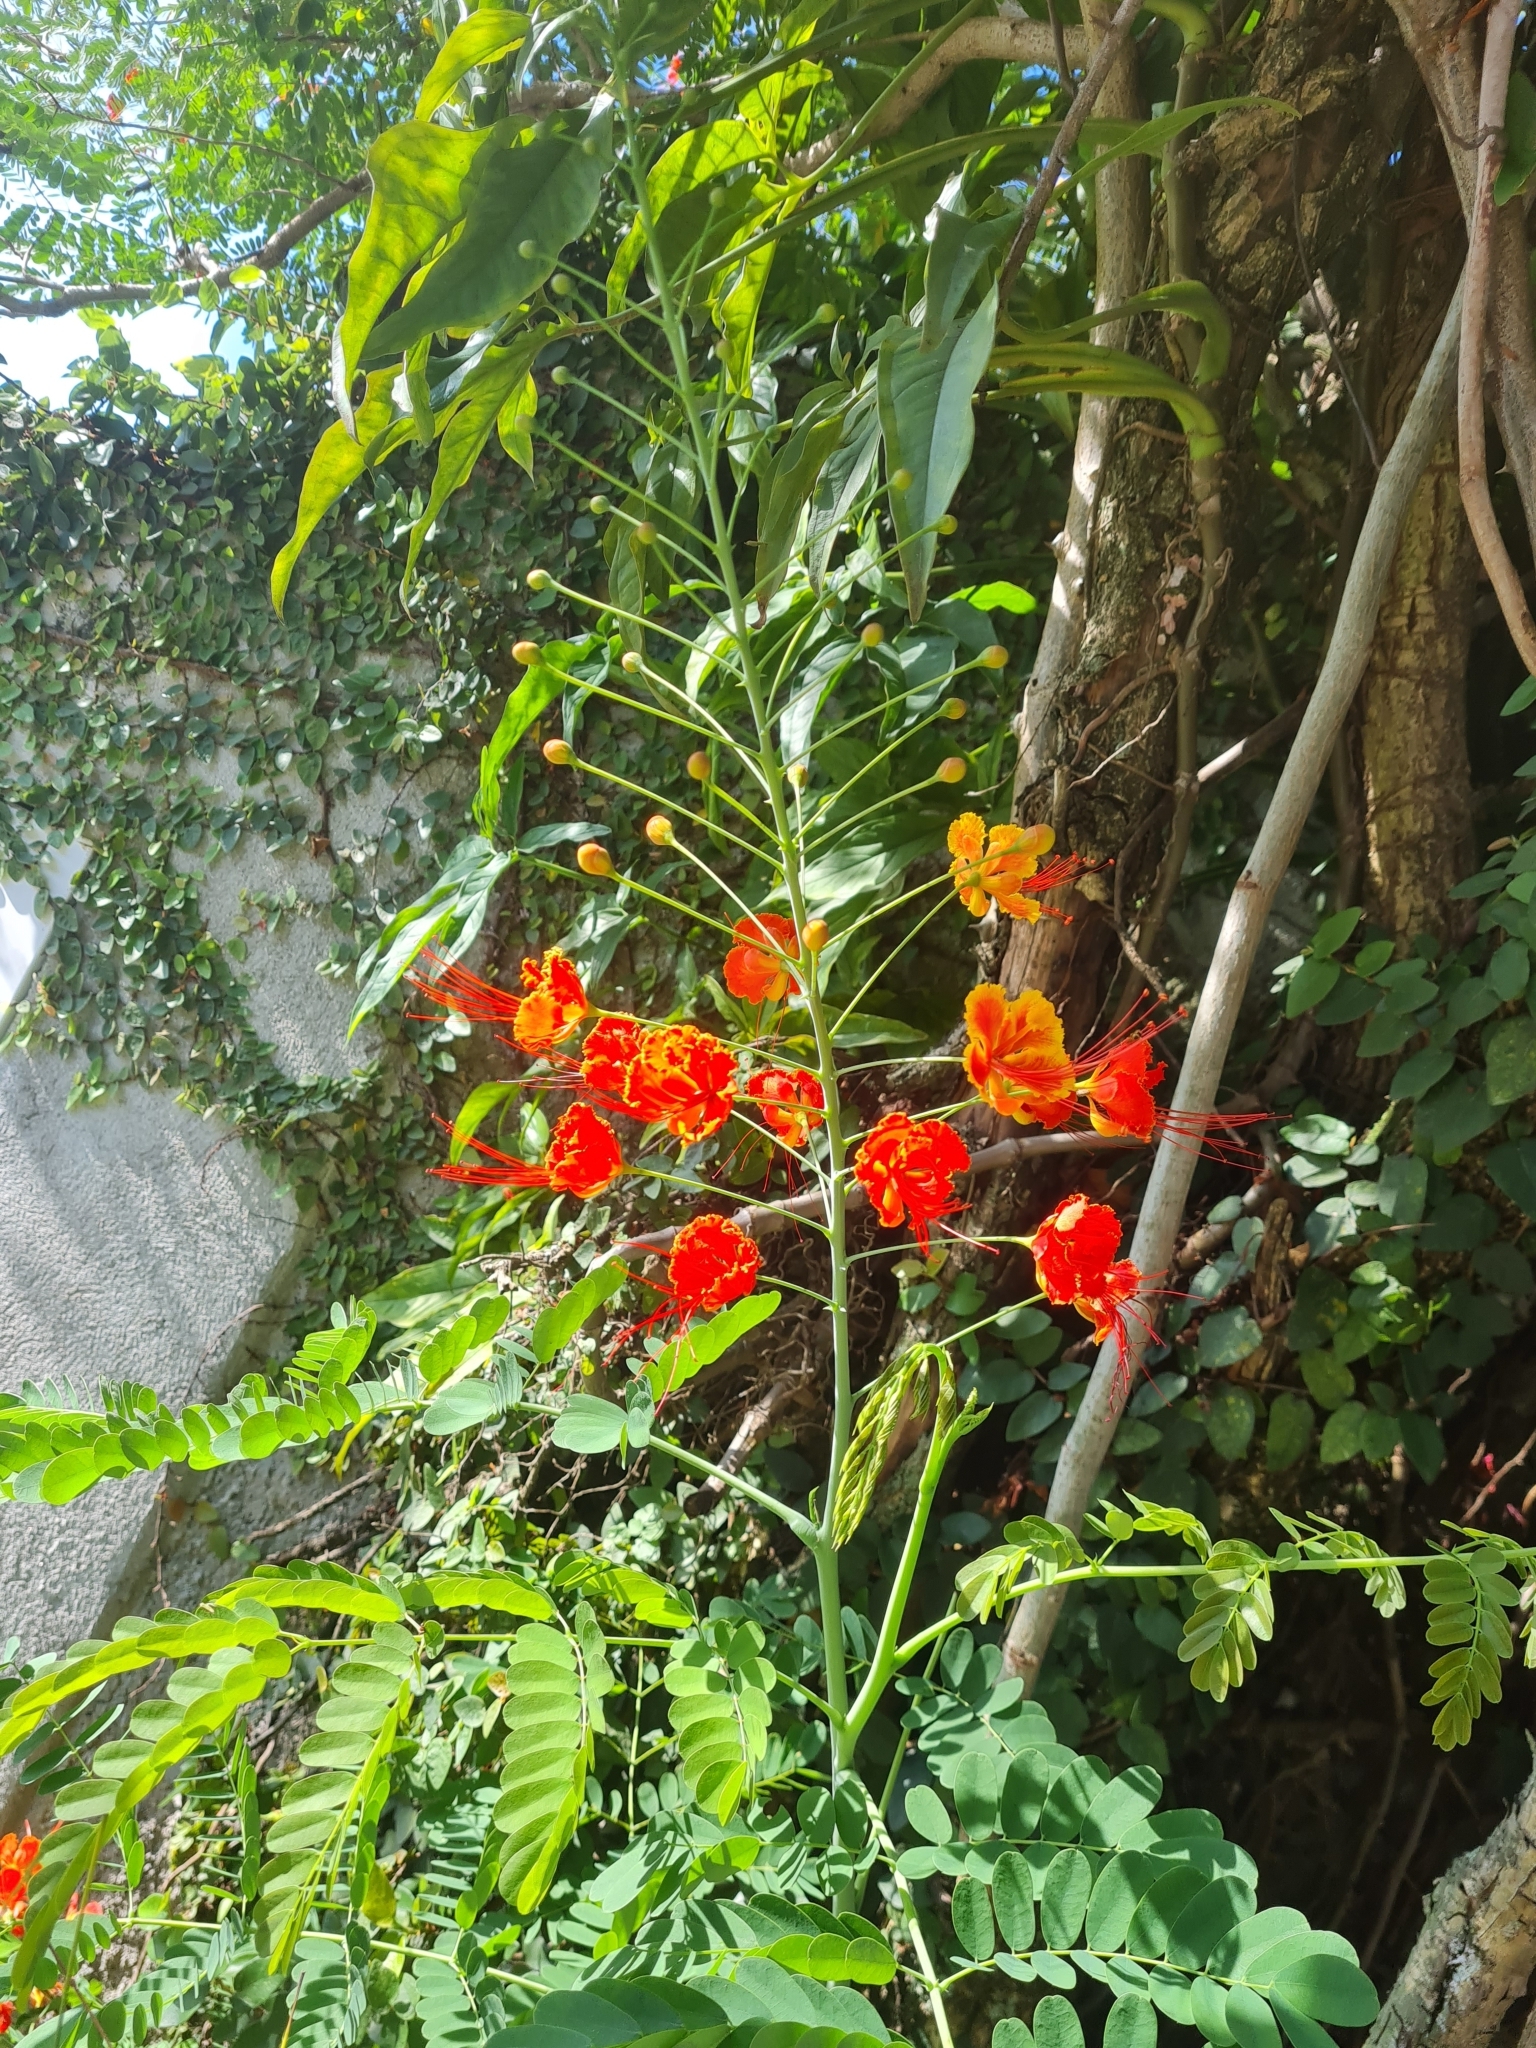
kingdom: Plantae
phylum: Tracheophyta
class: Magnoliopsida
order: Fabales
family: Fabaceae
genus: Caesalpinia
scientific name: Caesalpinia pulcherrima
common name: Pride-of-barbados
